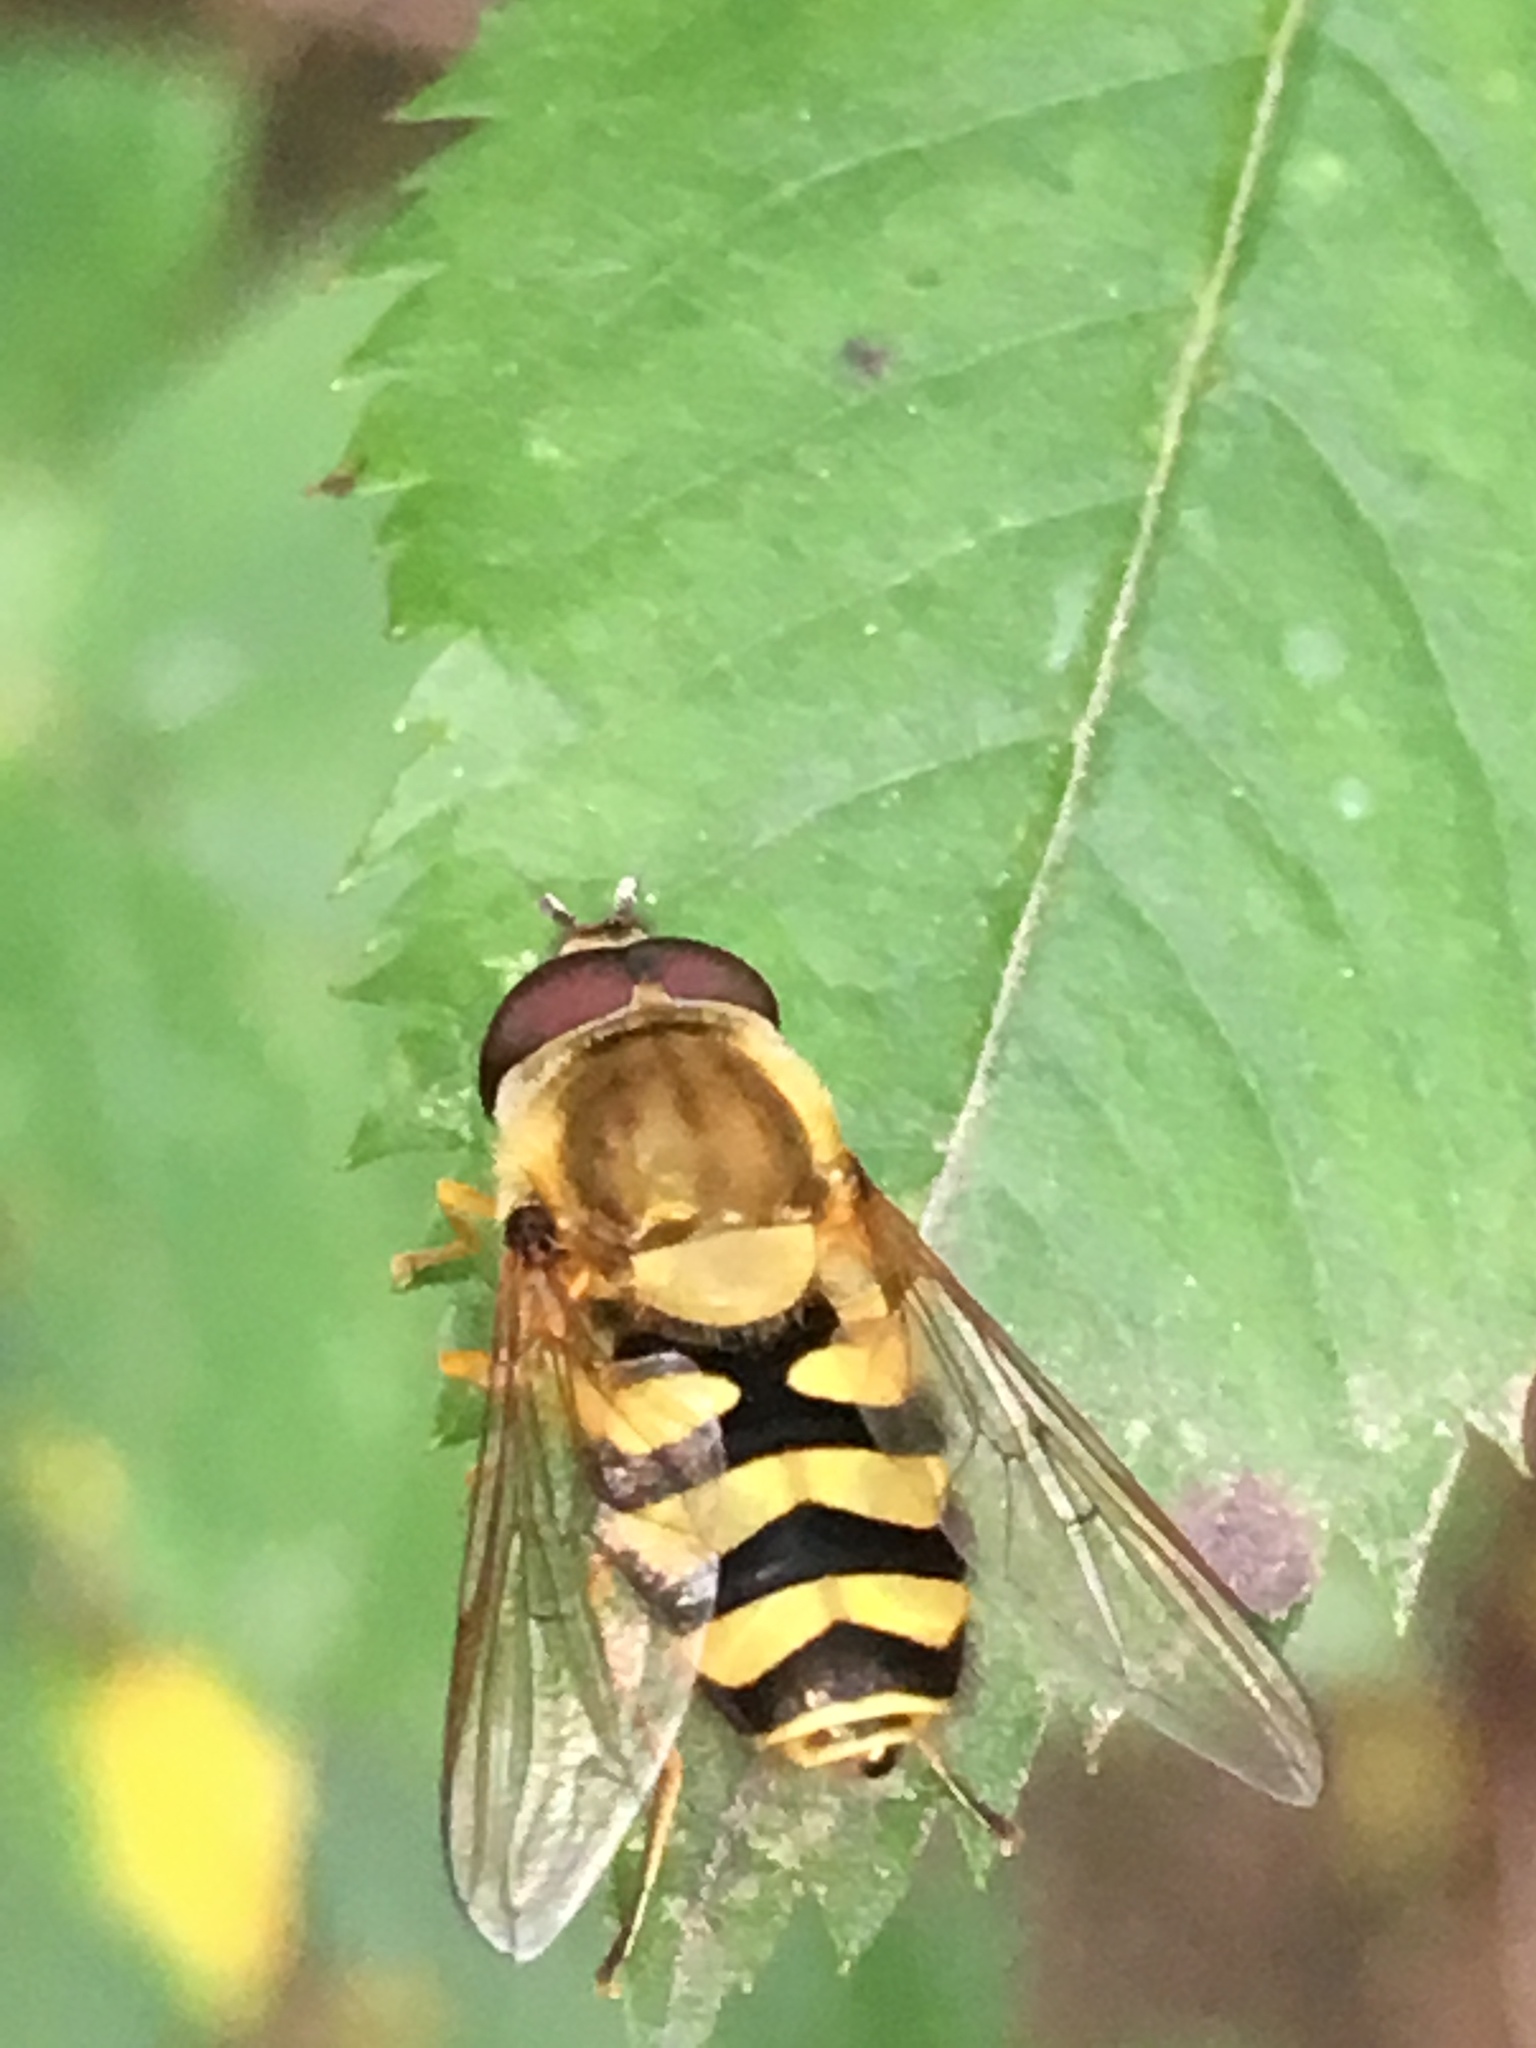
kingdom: Animalia
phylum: Arthropoda
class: Insecta
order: Diptera
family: Syrphidae
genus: Syrphus
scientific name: Syrphus
